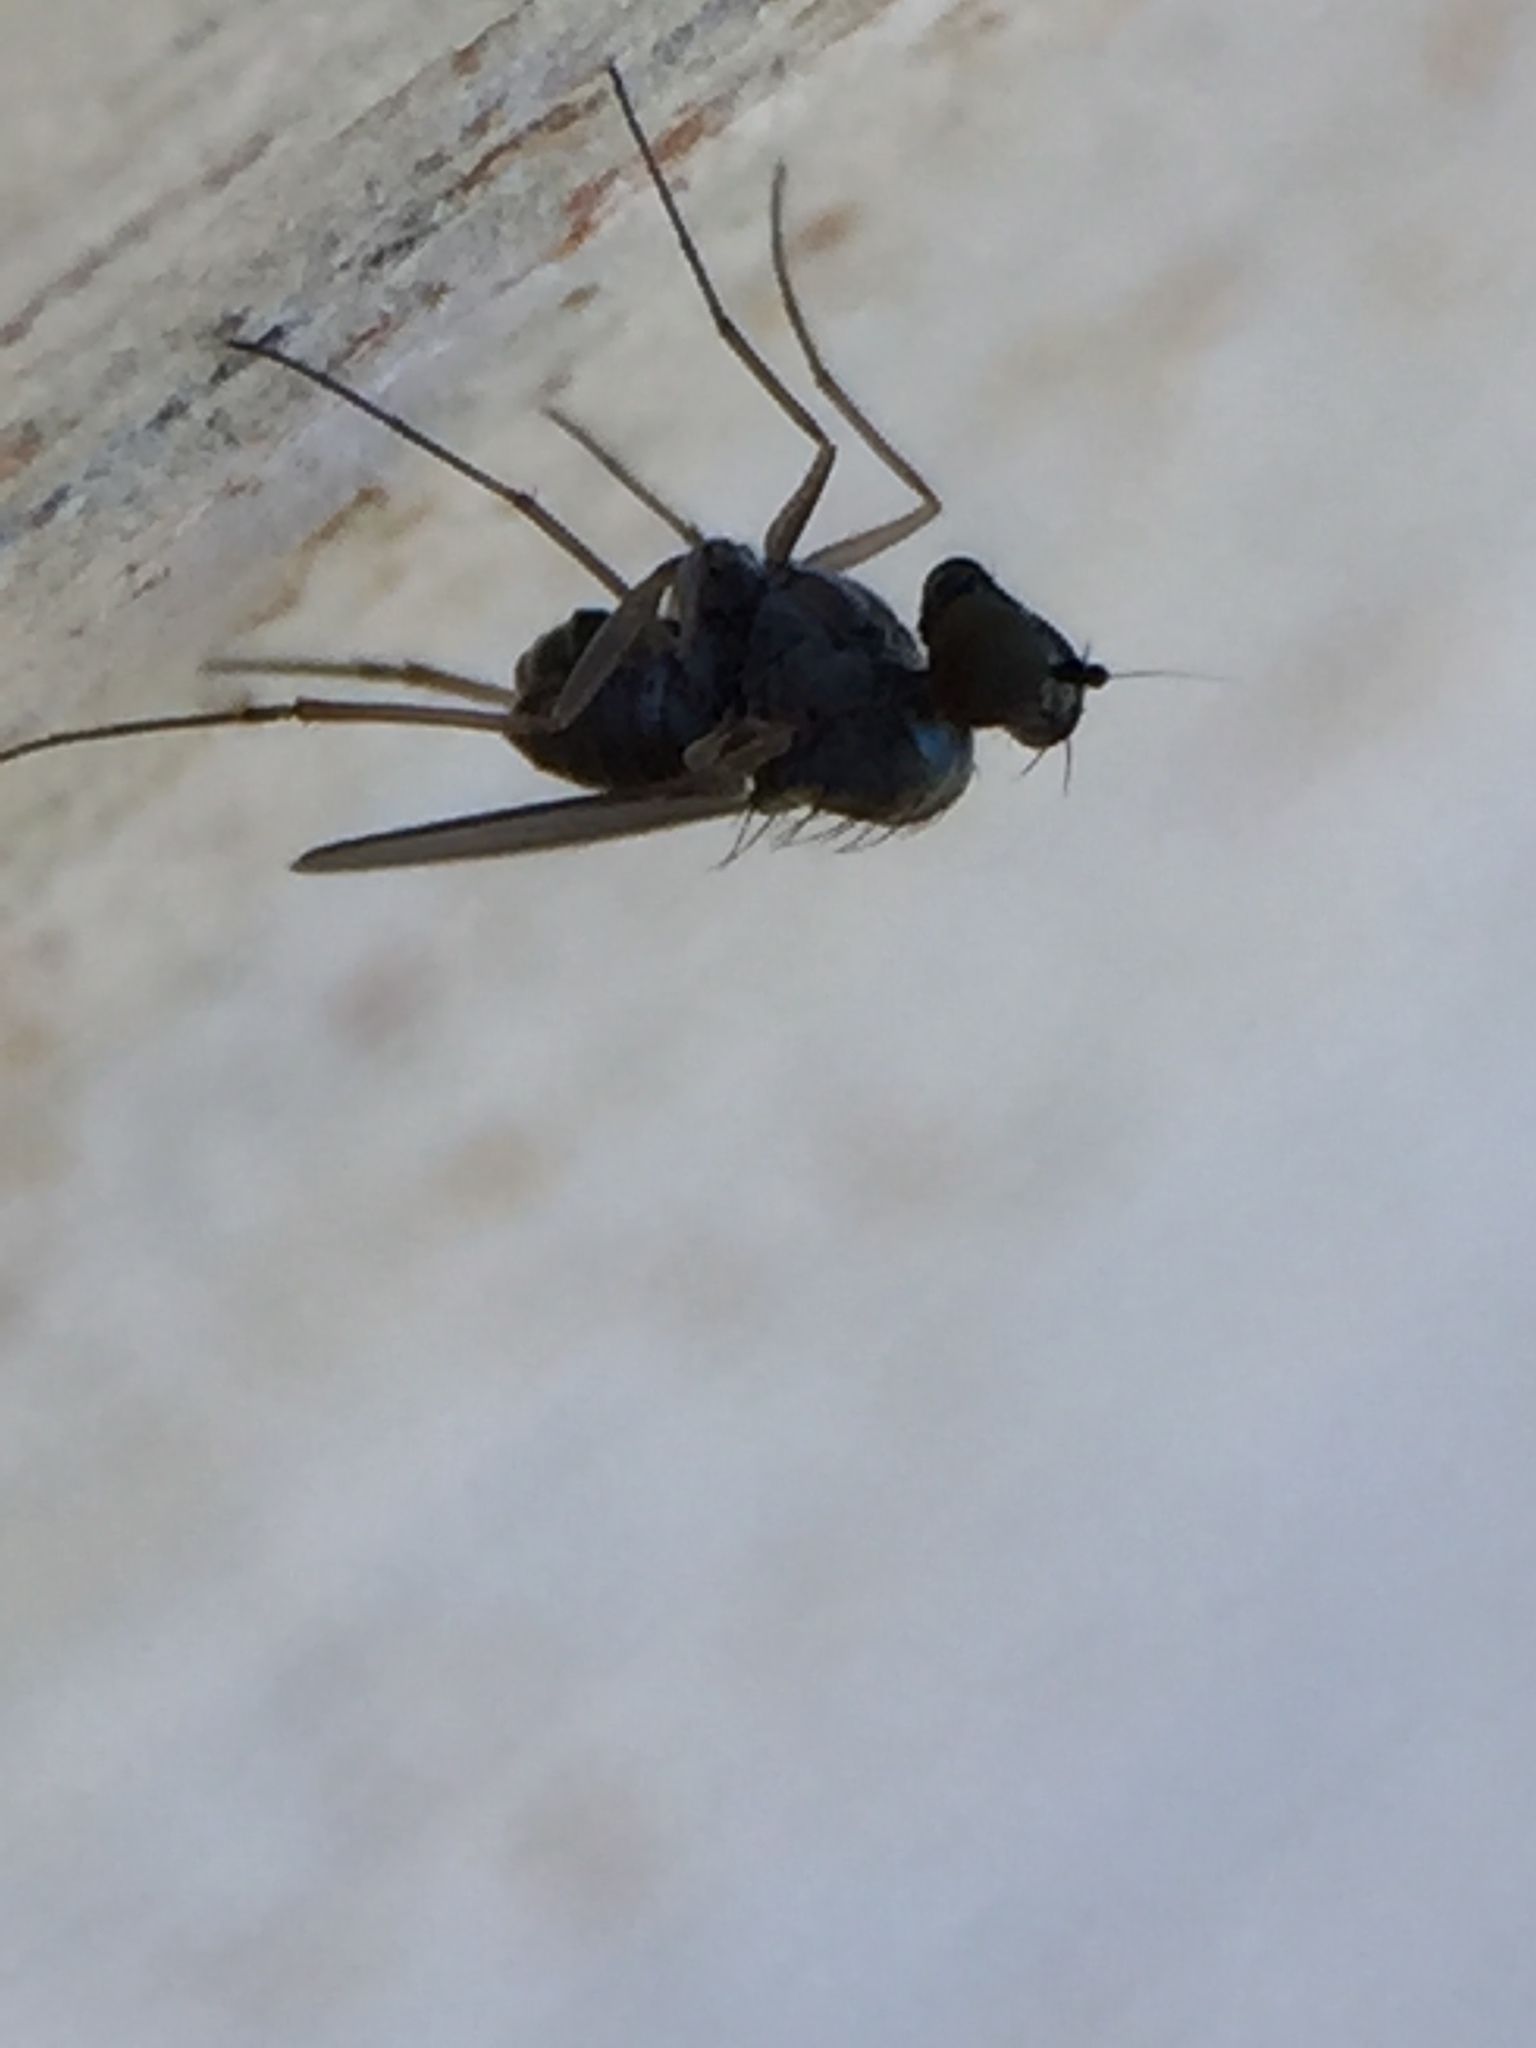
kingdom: Animalia
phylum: Arthropoda
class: Insecta
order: Diptera
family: Dolichopodidae
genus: Medetera
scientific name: Medetera grisescens
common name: Fly
